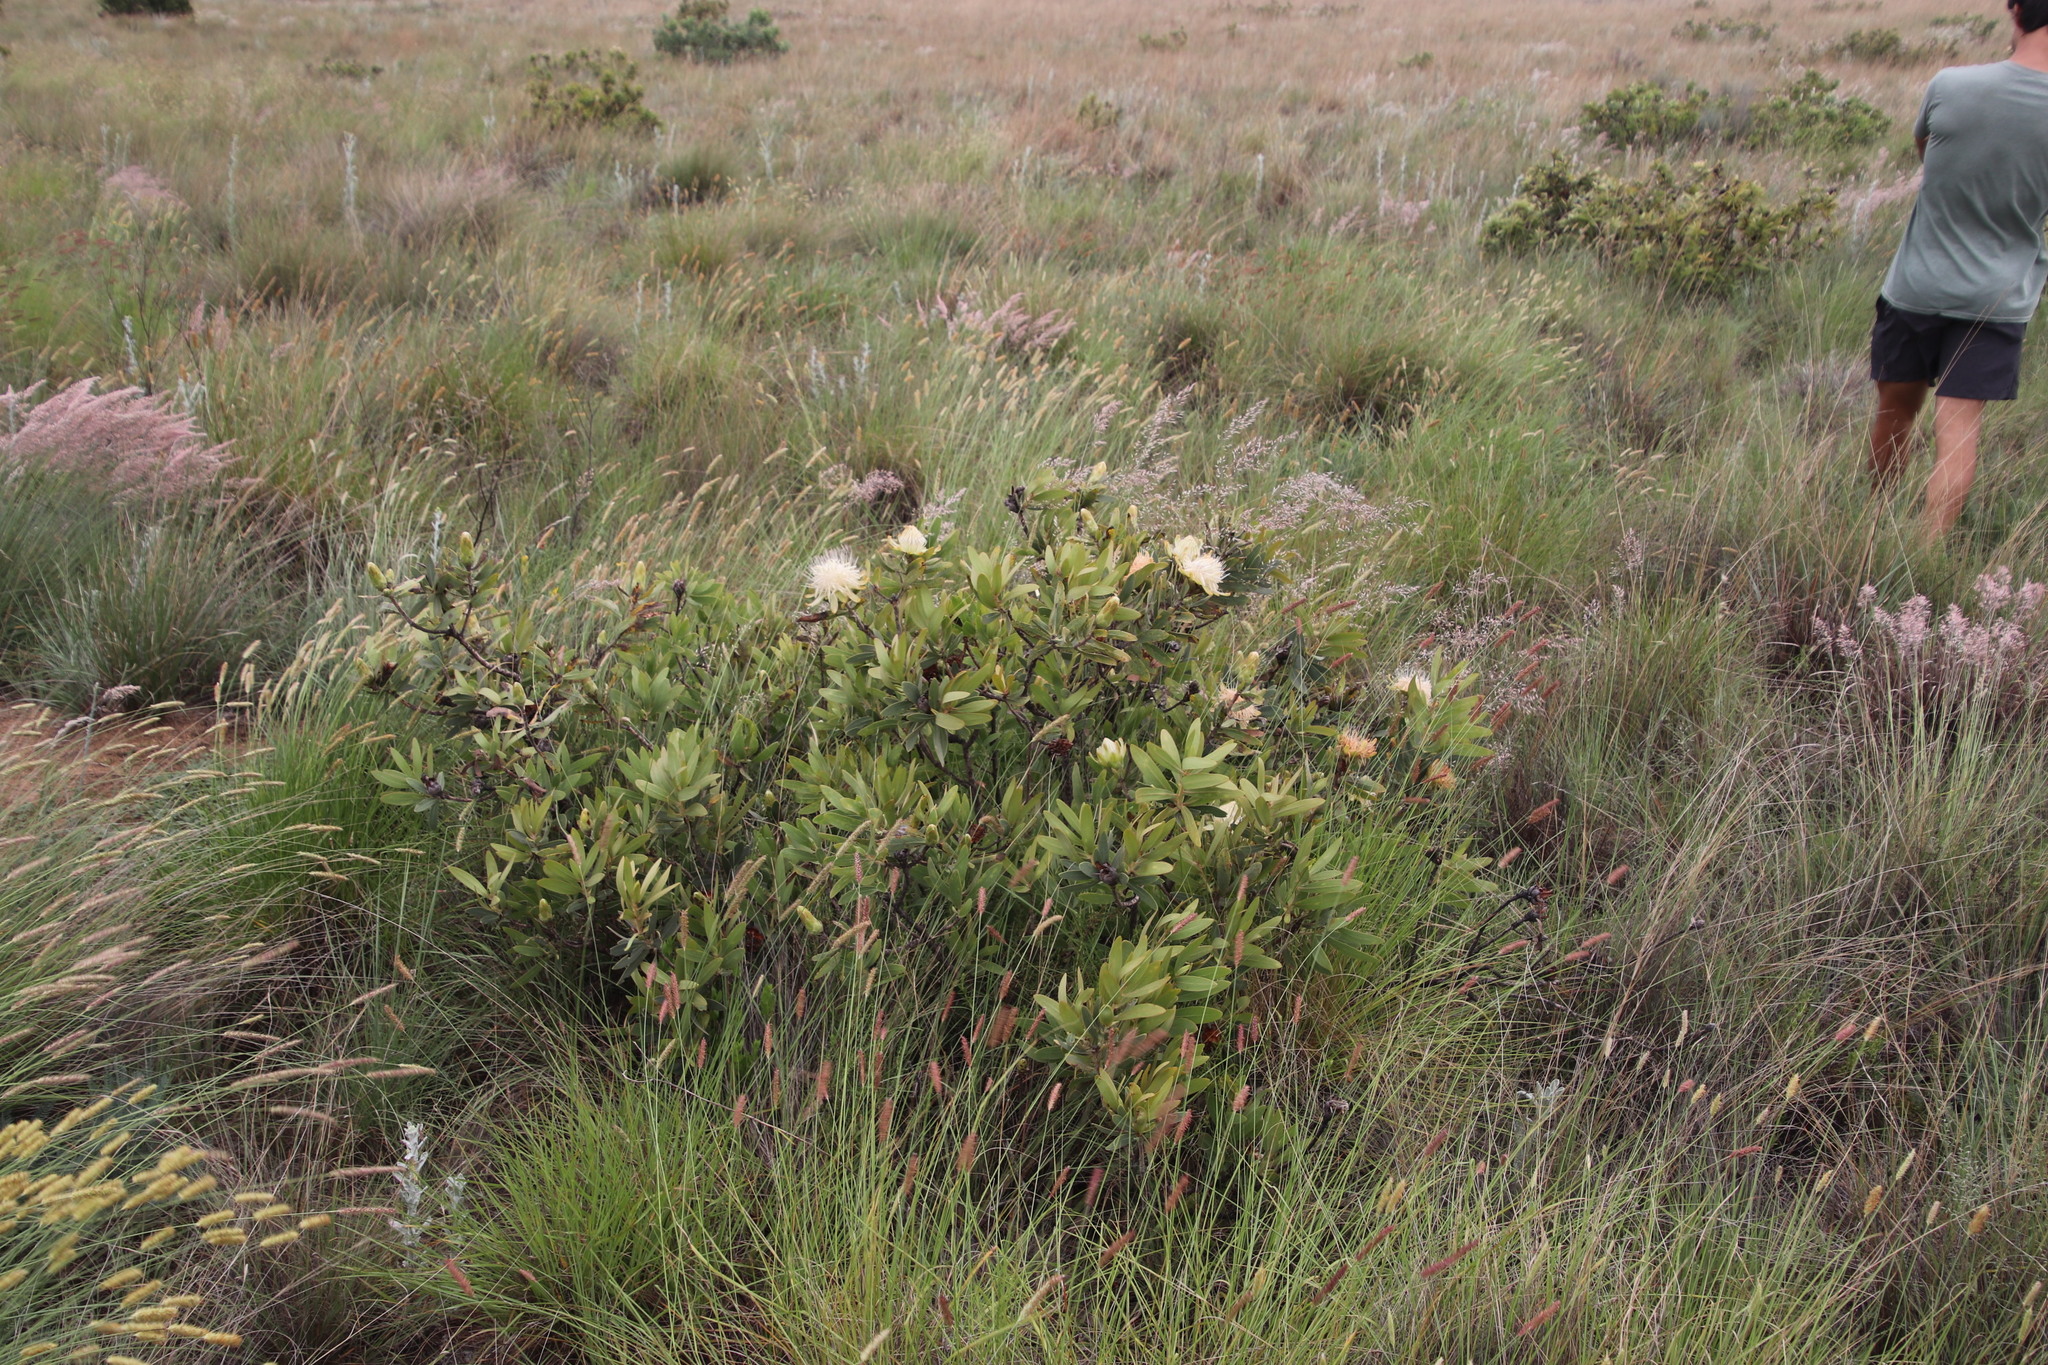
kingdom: Plantae
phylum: Tracheophyta
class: Magnoliopsida
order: Proteales
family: Proteaceae
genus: Protea
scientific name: Protea welwitschii
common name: Cluster-head protea
